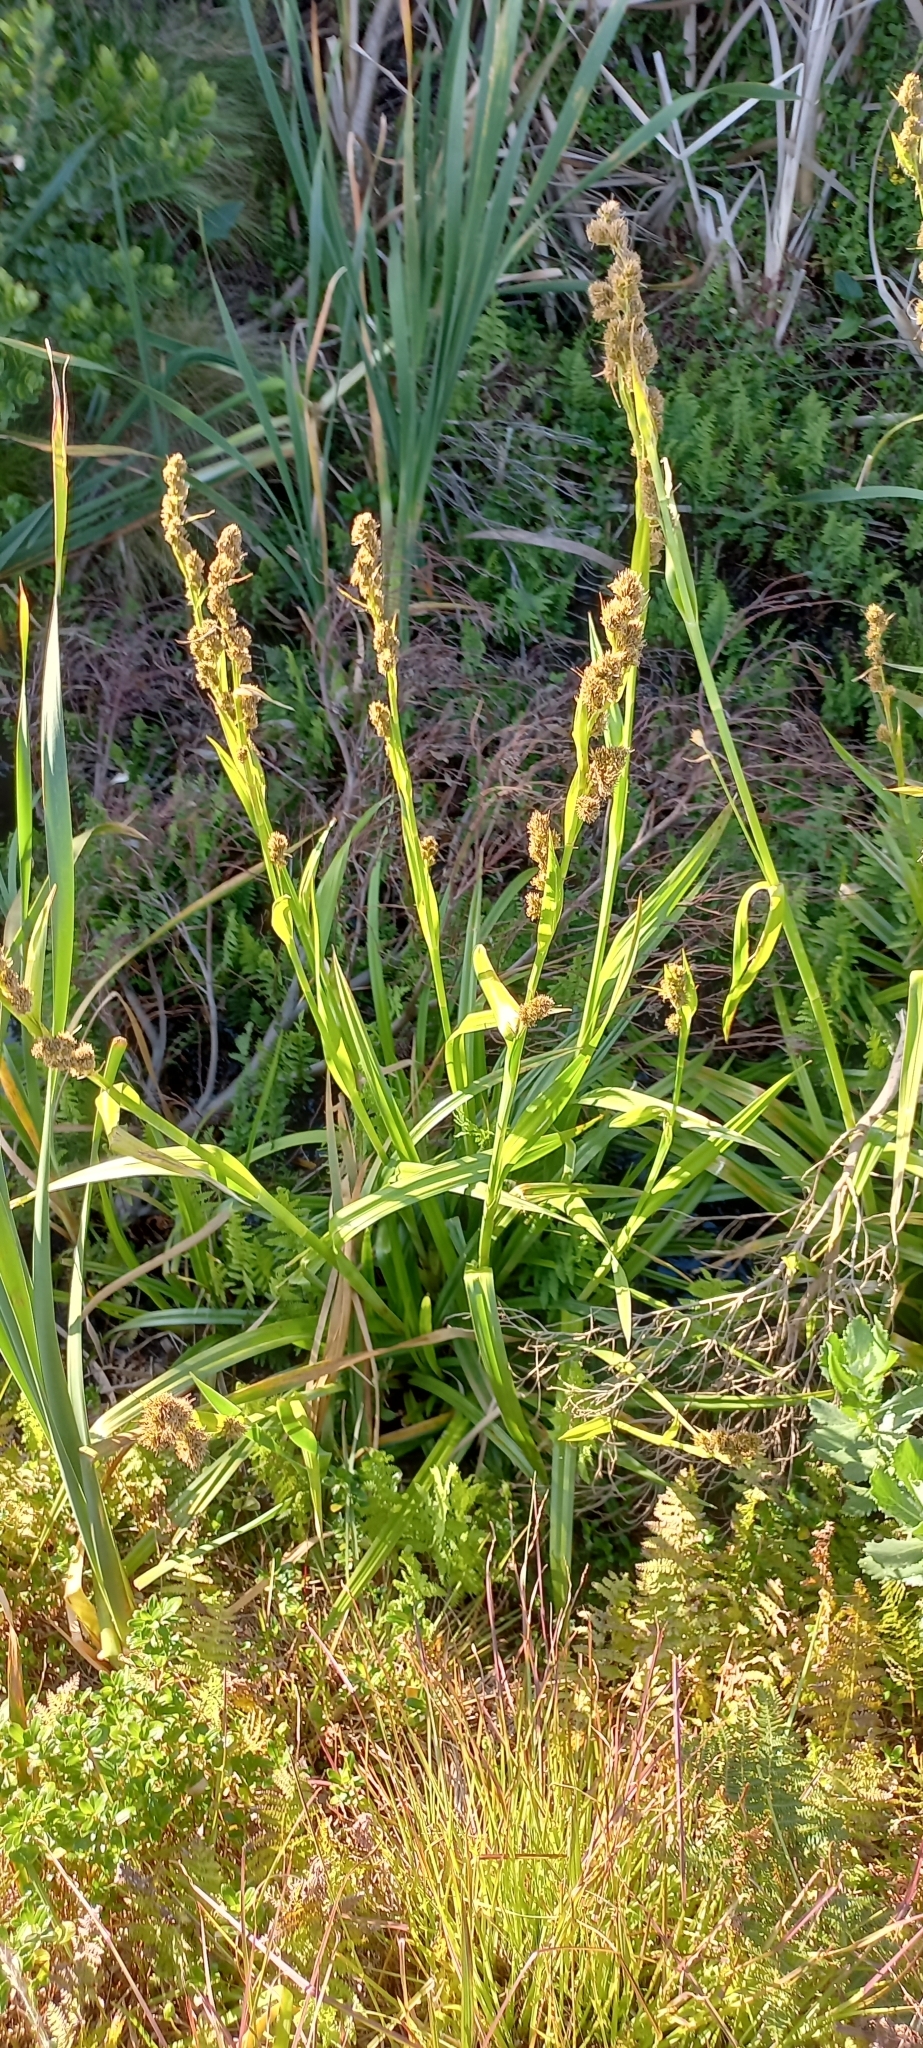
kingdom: Plantae
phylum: Tracheophyta
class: Liliopsida
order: Poales
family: Cyperaceae
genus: Carpha
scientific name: Carpha glomerata
